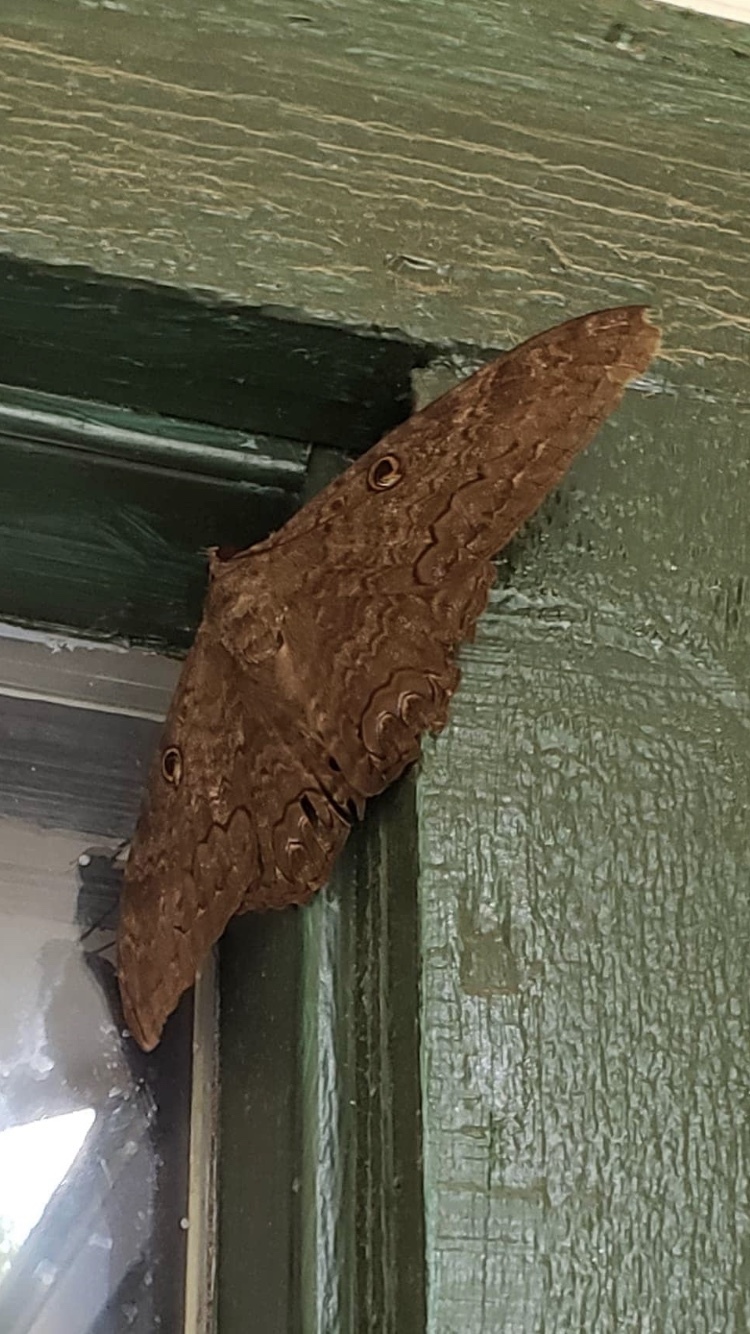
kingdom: Animalia
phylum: Arthropoda
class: Insecta
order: Lepidoptera
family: Erebidae
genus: Ascalapha
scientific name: Ascalapha odorata
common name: Black witch
